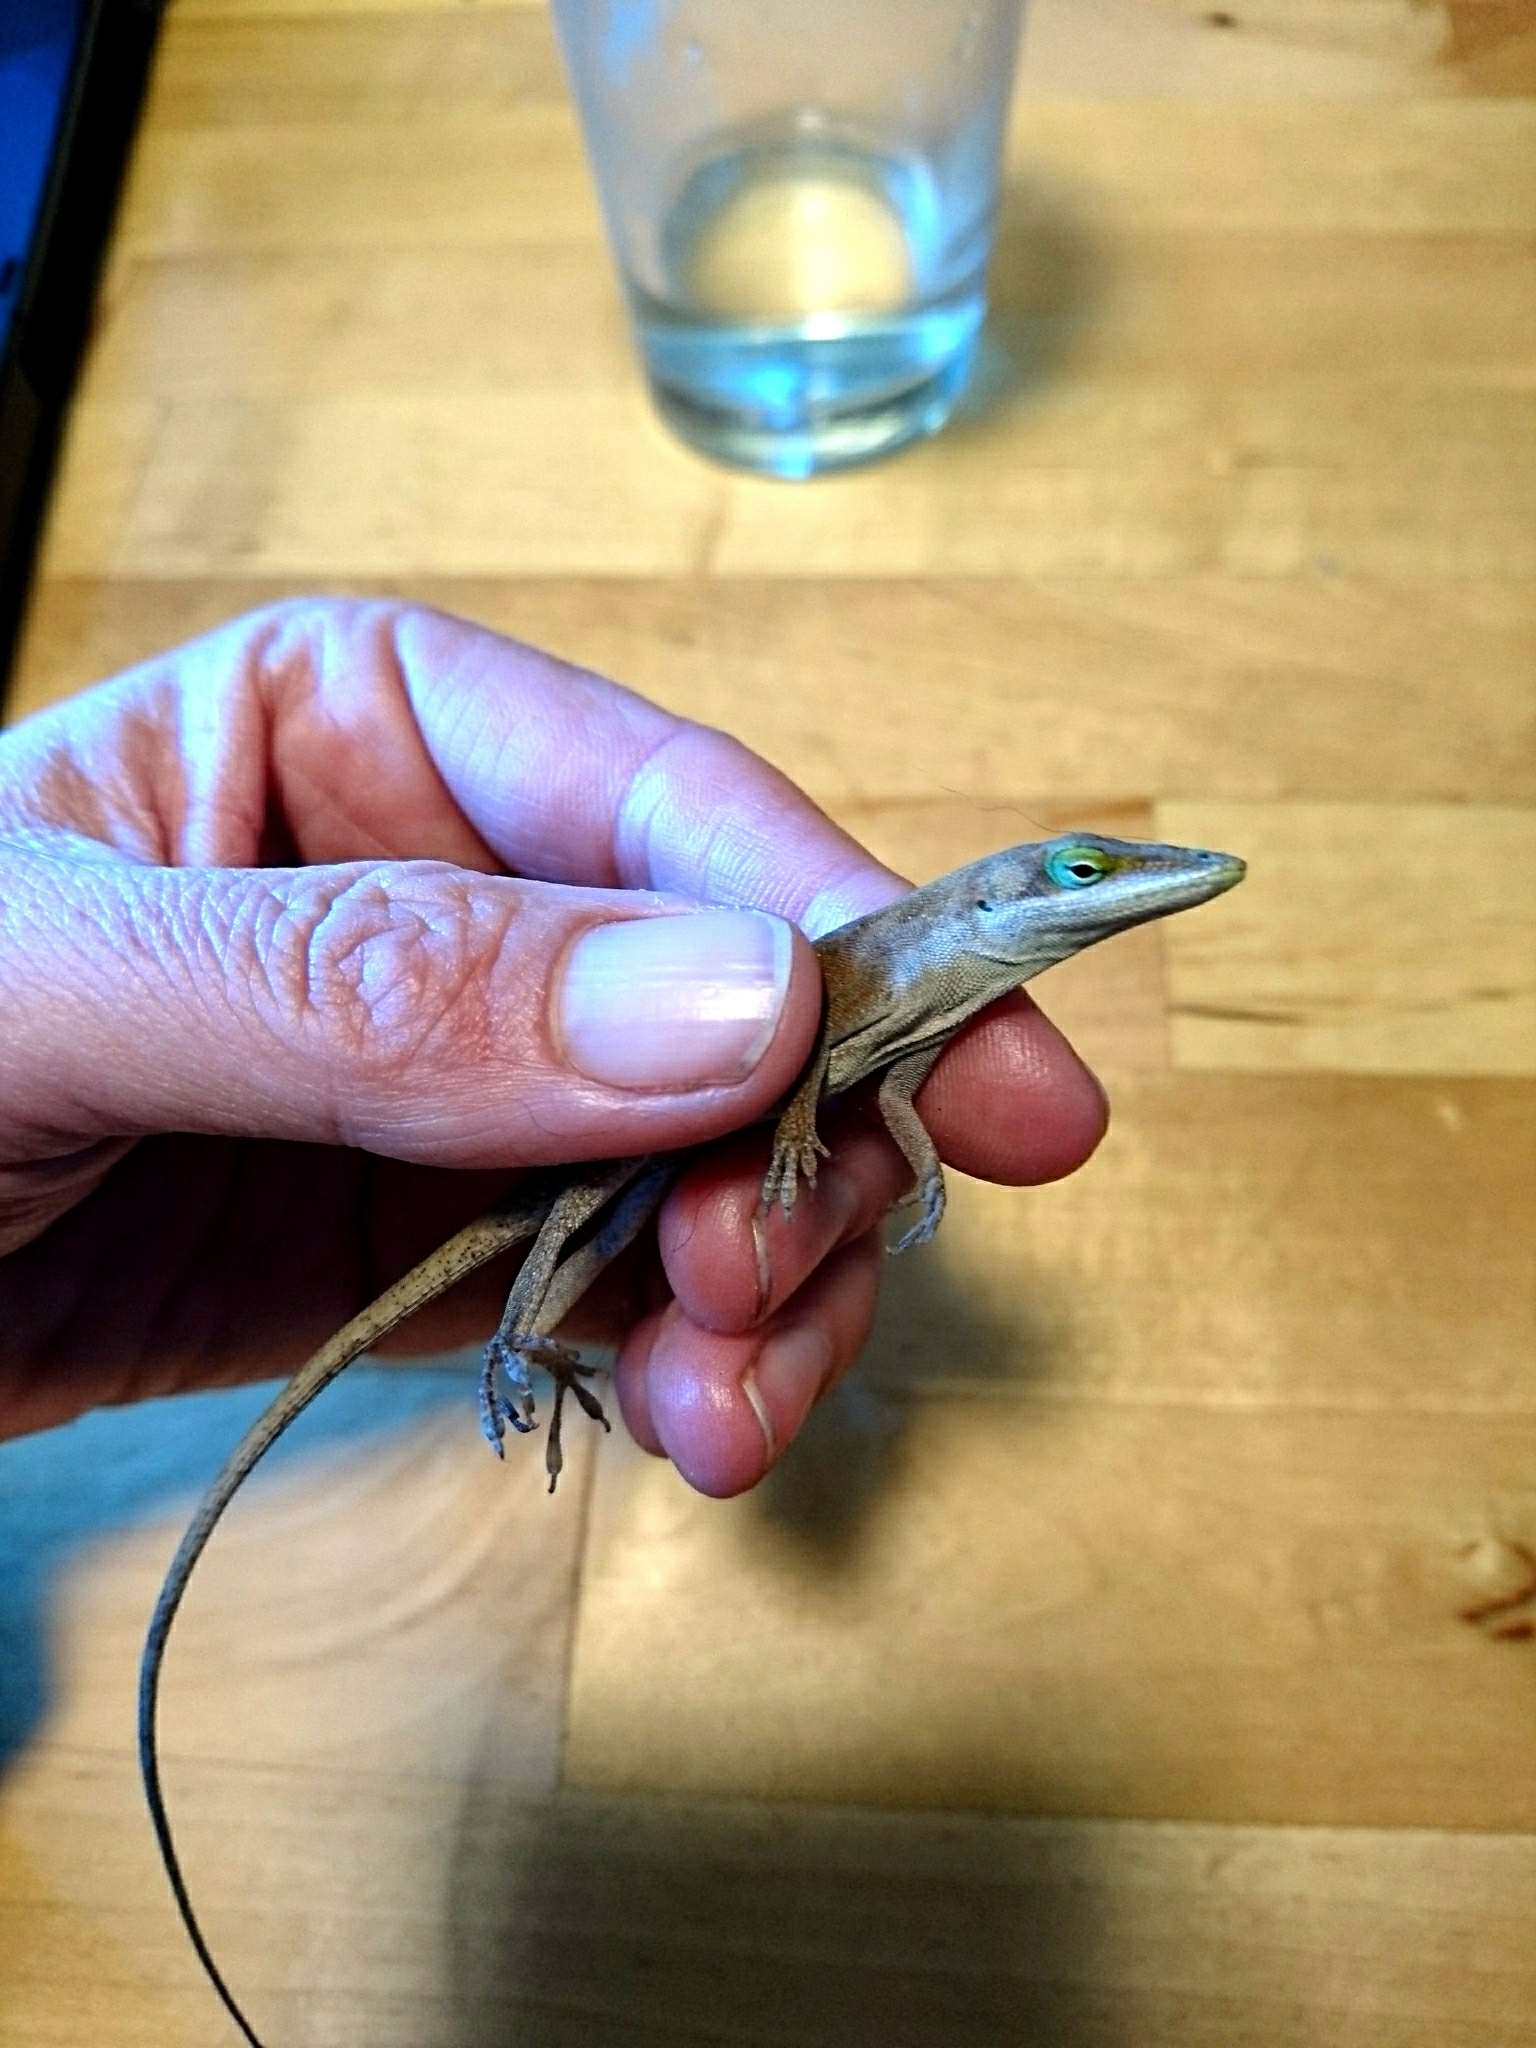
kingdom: Animalia
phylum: Chordata
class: Squamata
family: Dactyloidae
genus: Anolis
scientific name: Anolis carolinensis
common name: Green anole
